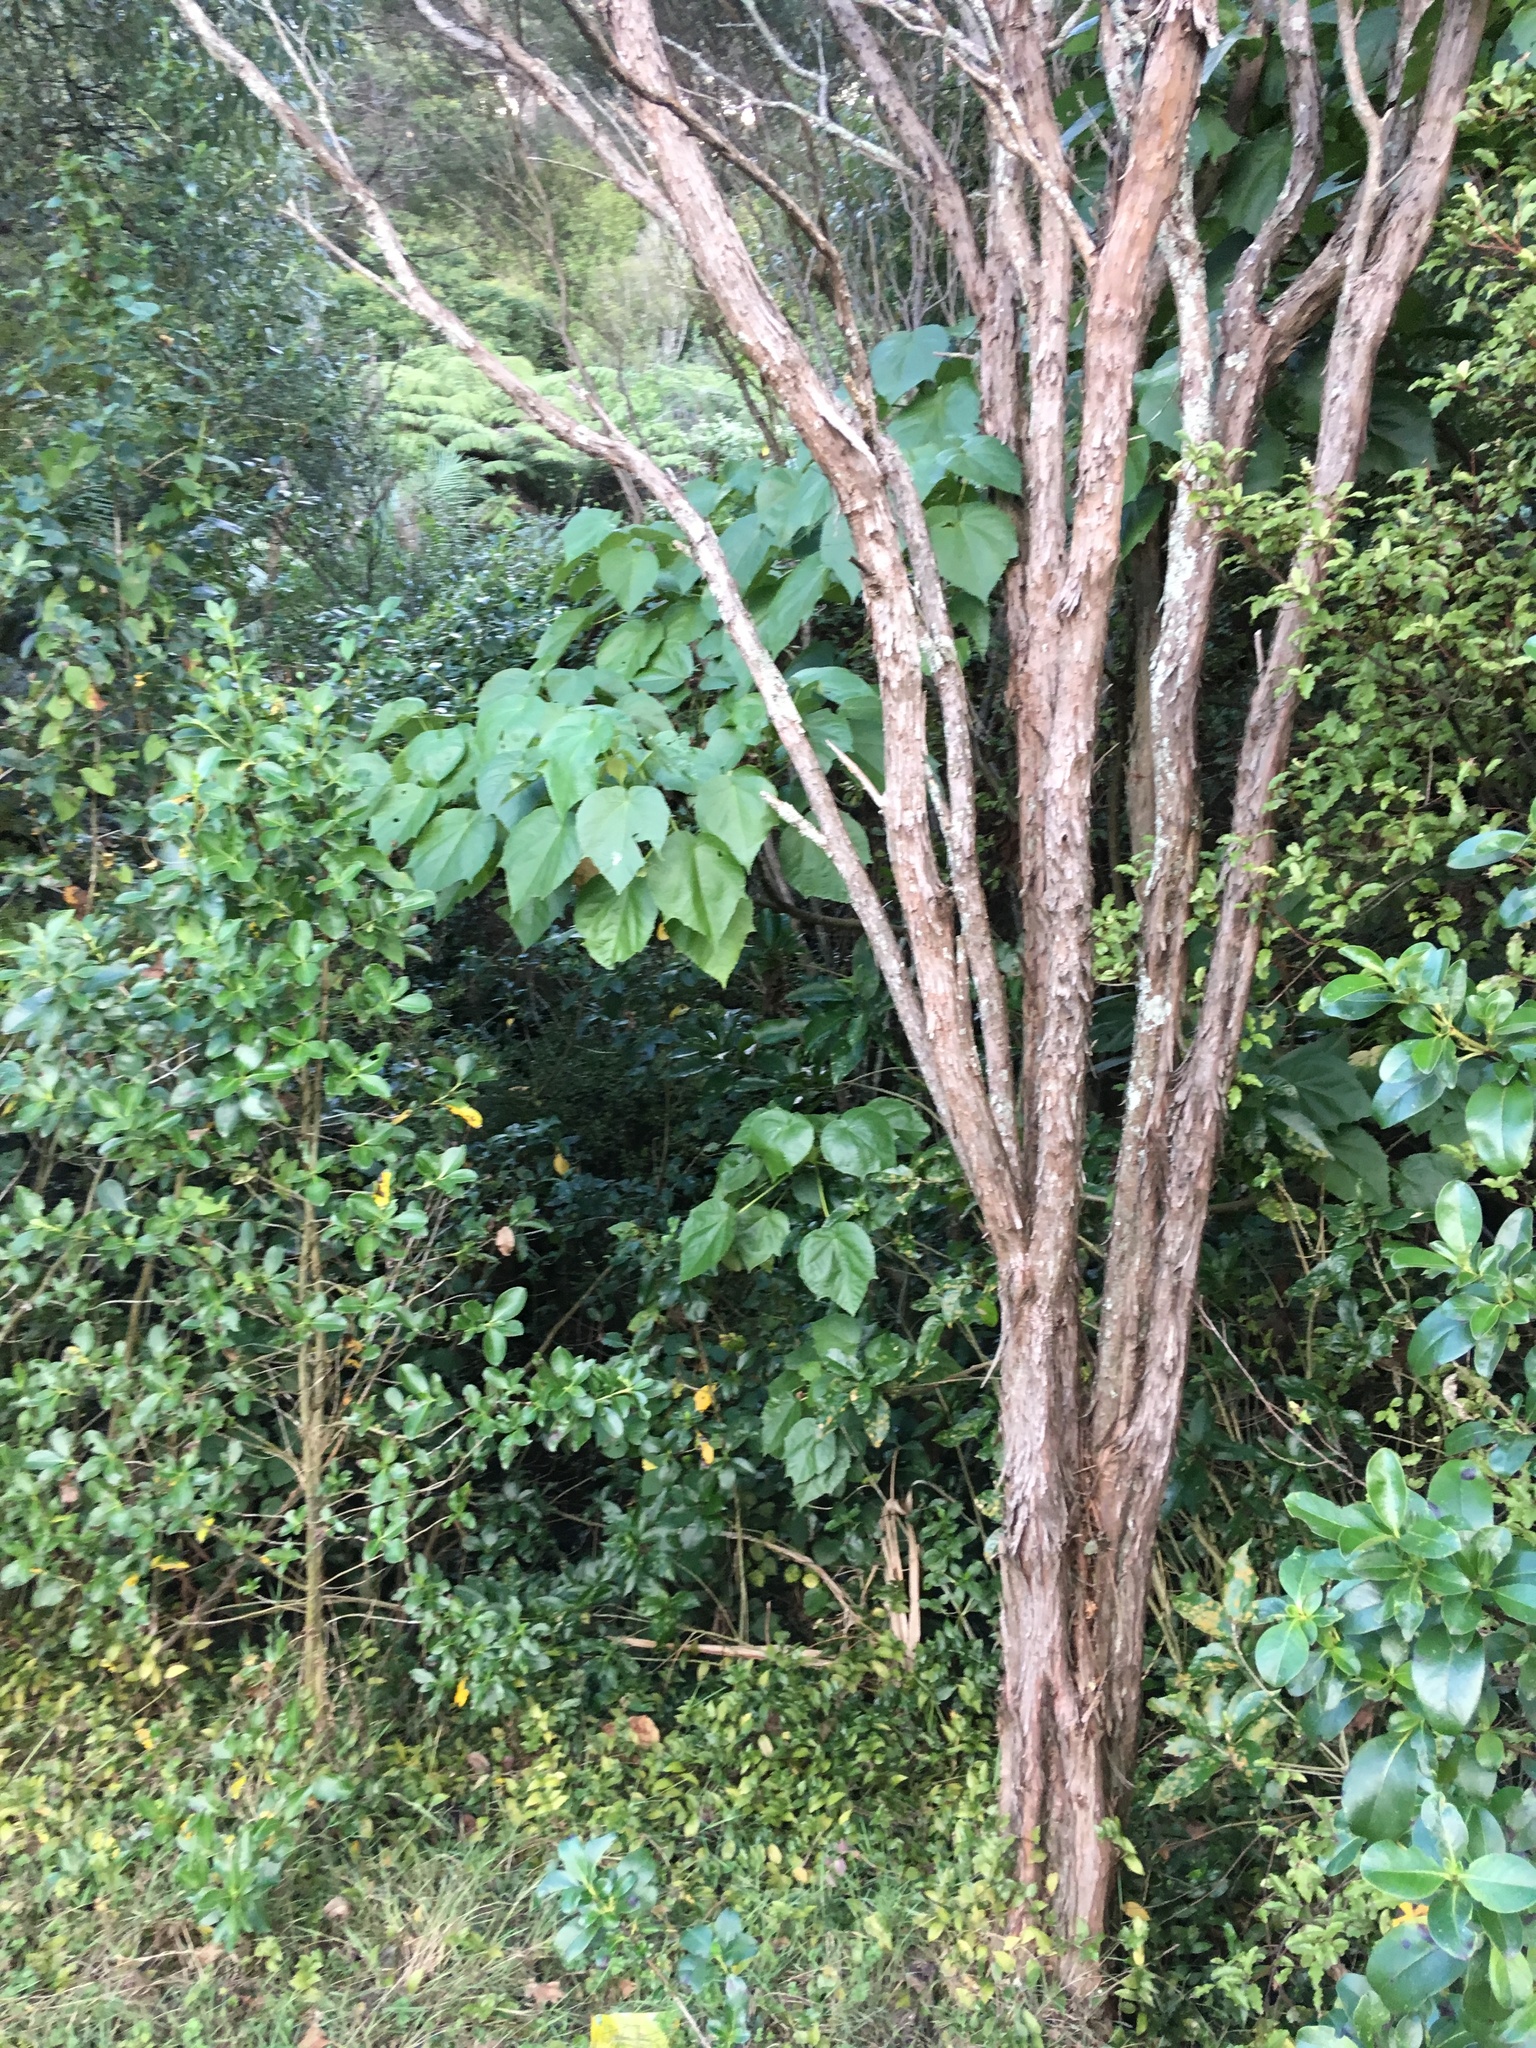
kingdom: Plantae
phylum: Tracheophyta
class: Magnoliopsida
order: Piperales
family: Piperaceae
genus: Macropiper
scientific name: Macropiper excelsum
